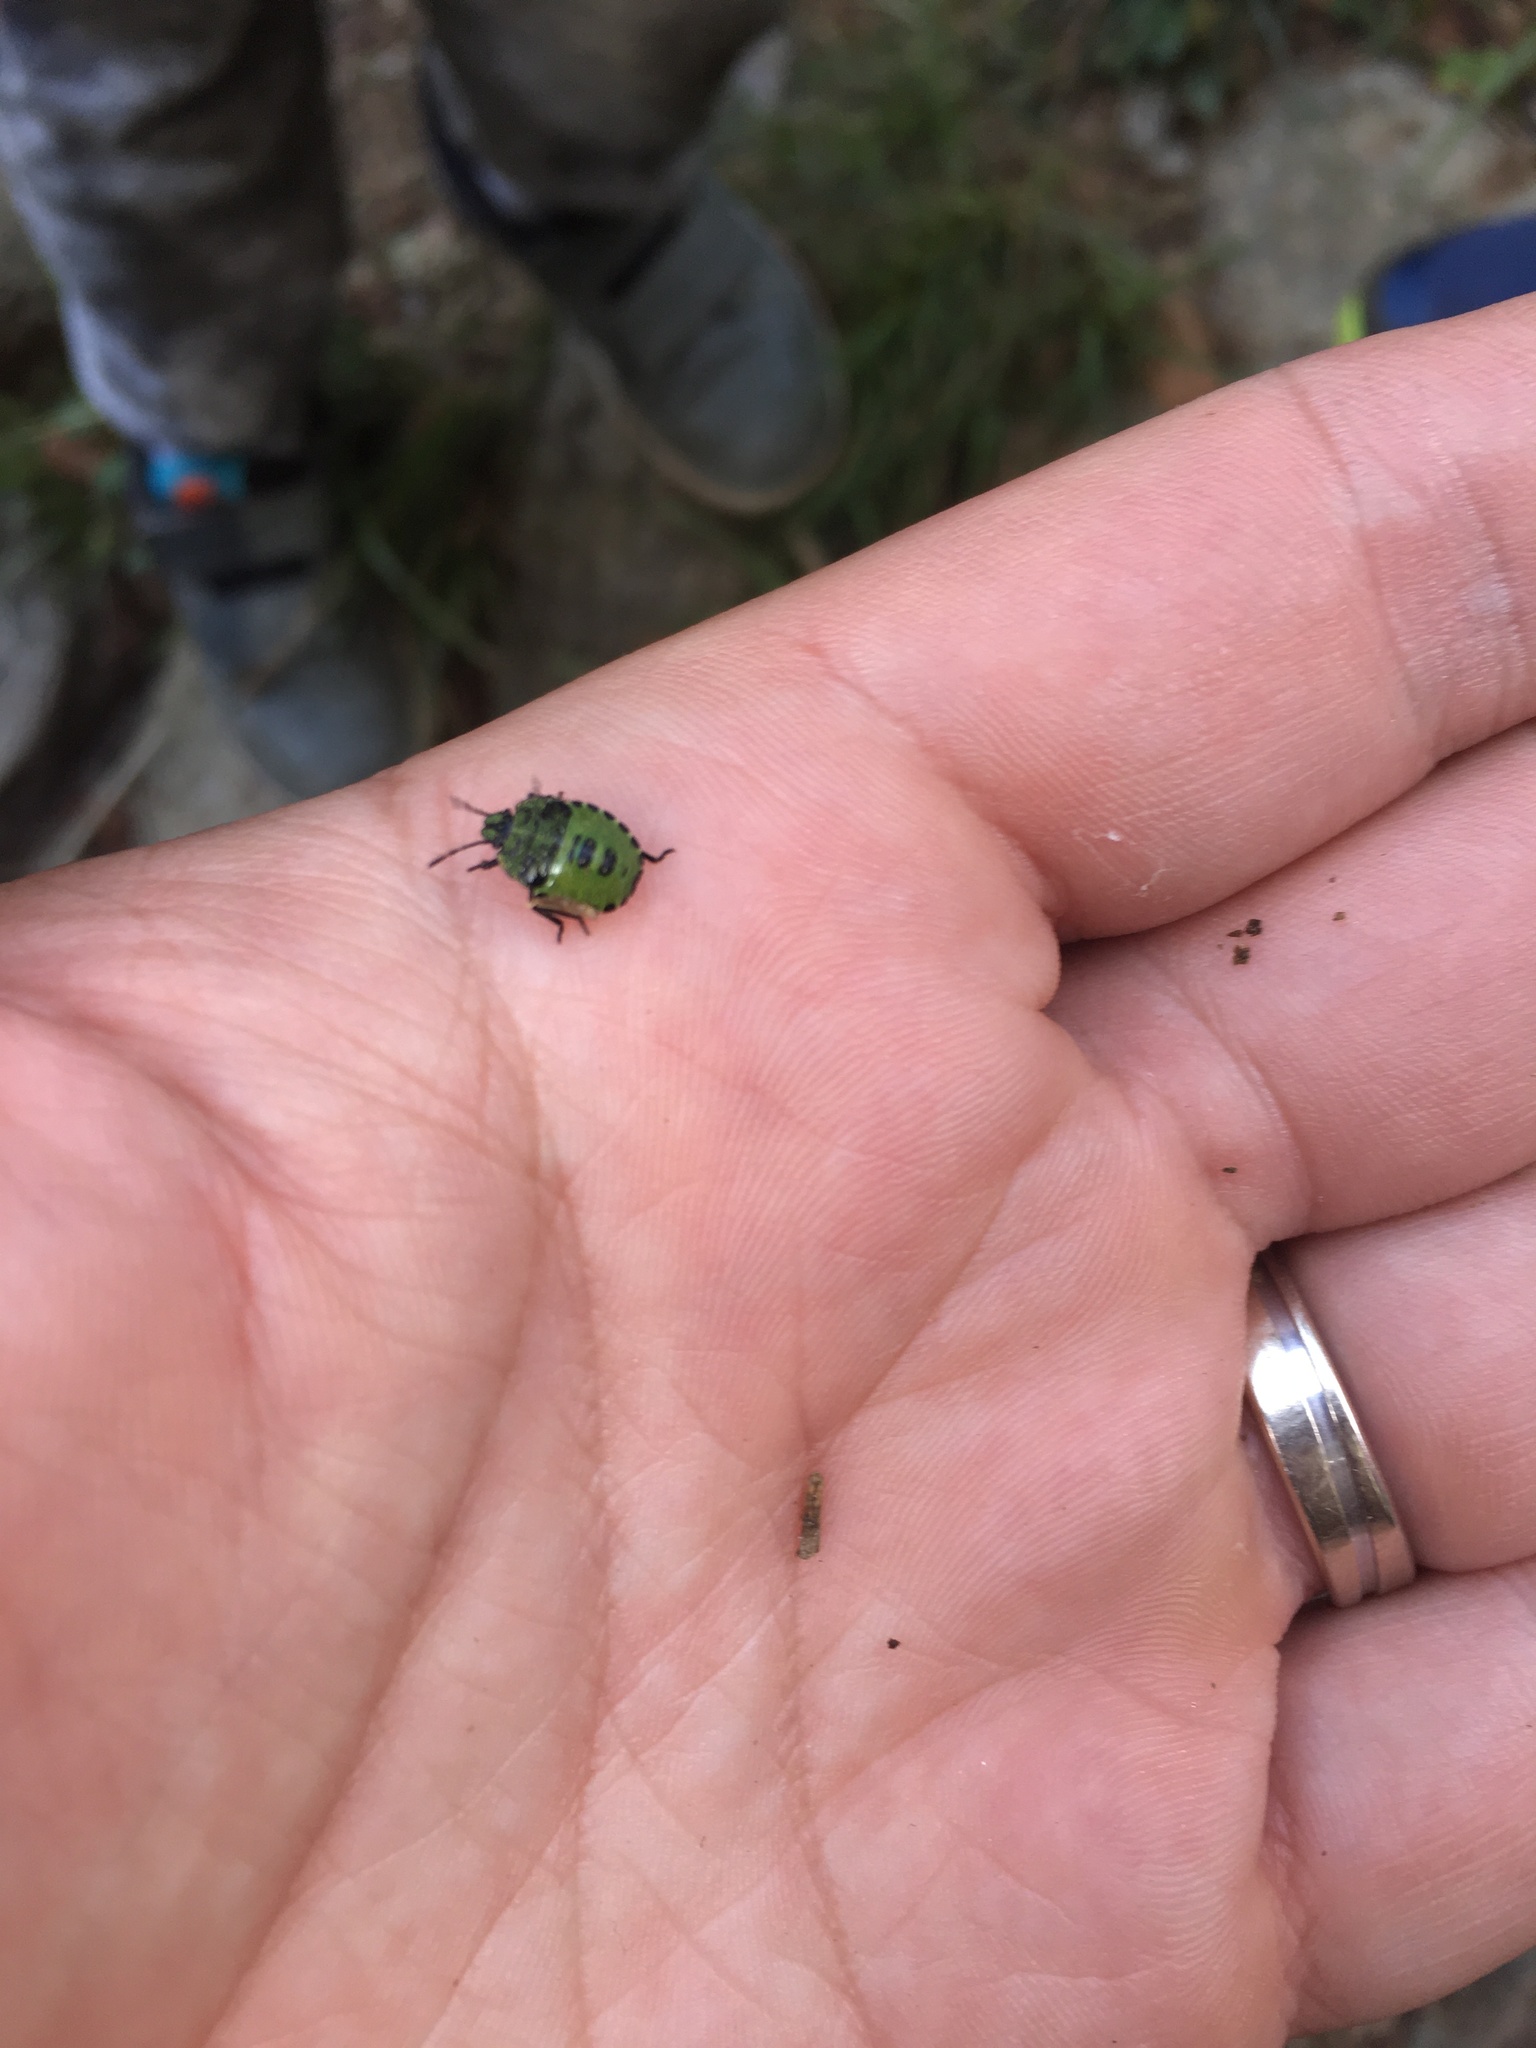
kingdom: Animalia
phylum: Arthropoda
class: Insecta
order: Hemiptera
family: Pentatomidae
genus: Palomena
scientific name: Palomena prasina
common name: Green shieldbug
